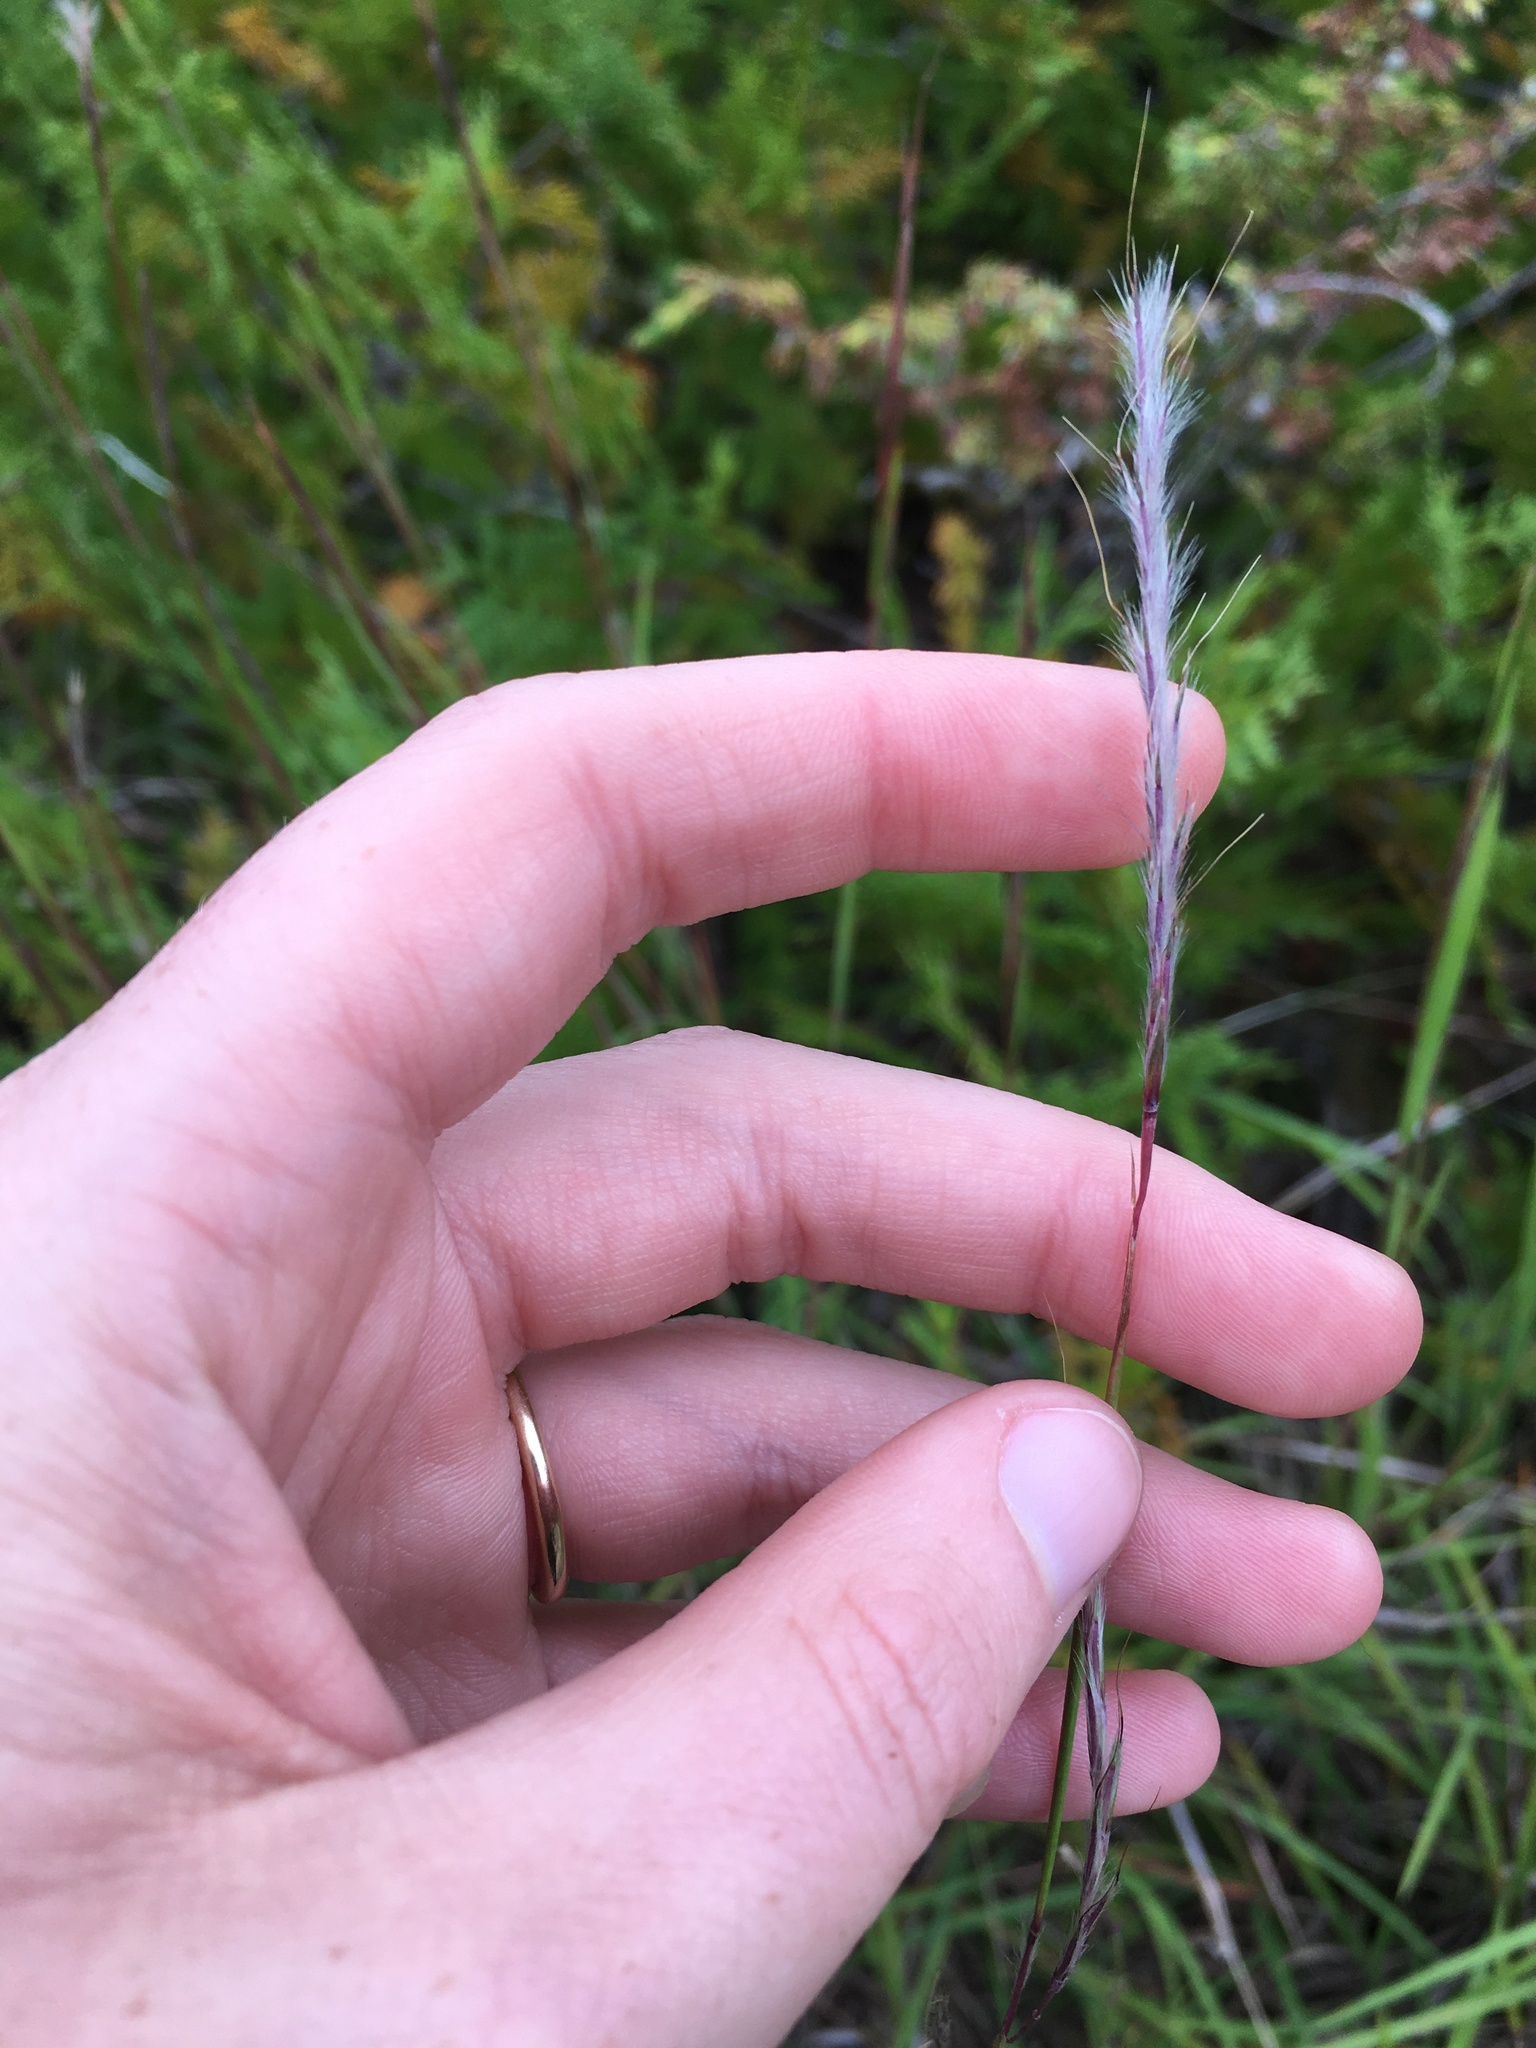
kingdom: Plantae
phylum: Tracheophyta
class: Liliopsida
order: Poales
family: Poaceae
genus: Schizachyrium
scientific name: Schizachyrium scoparium
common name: Little bluestem
